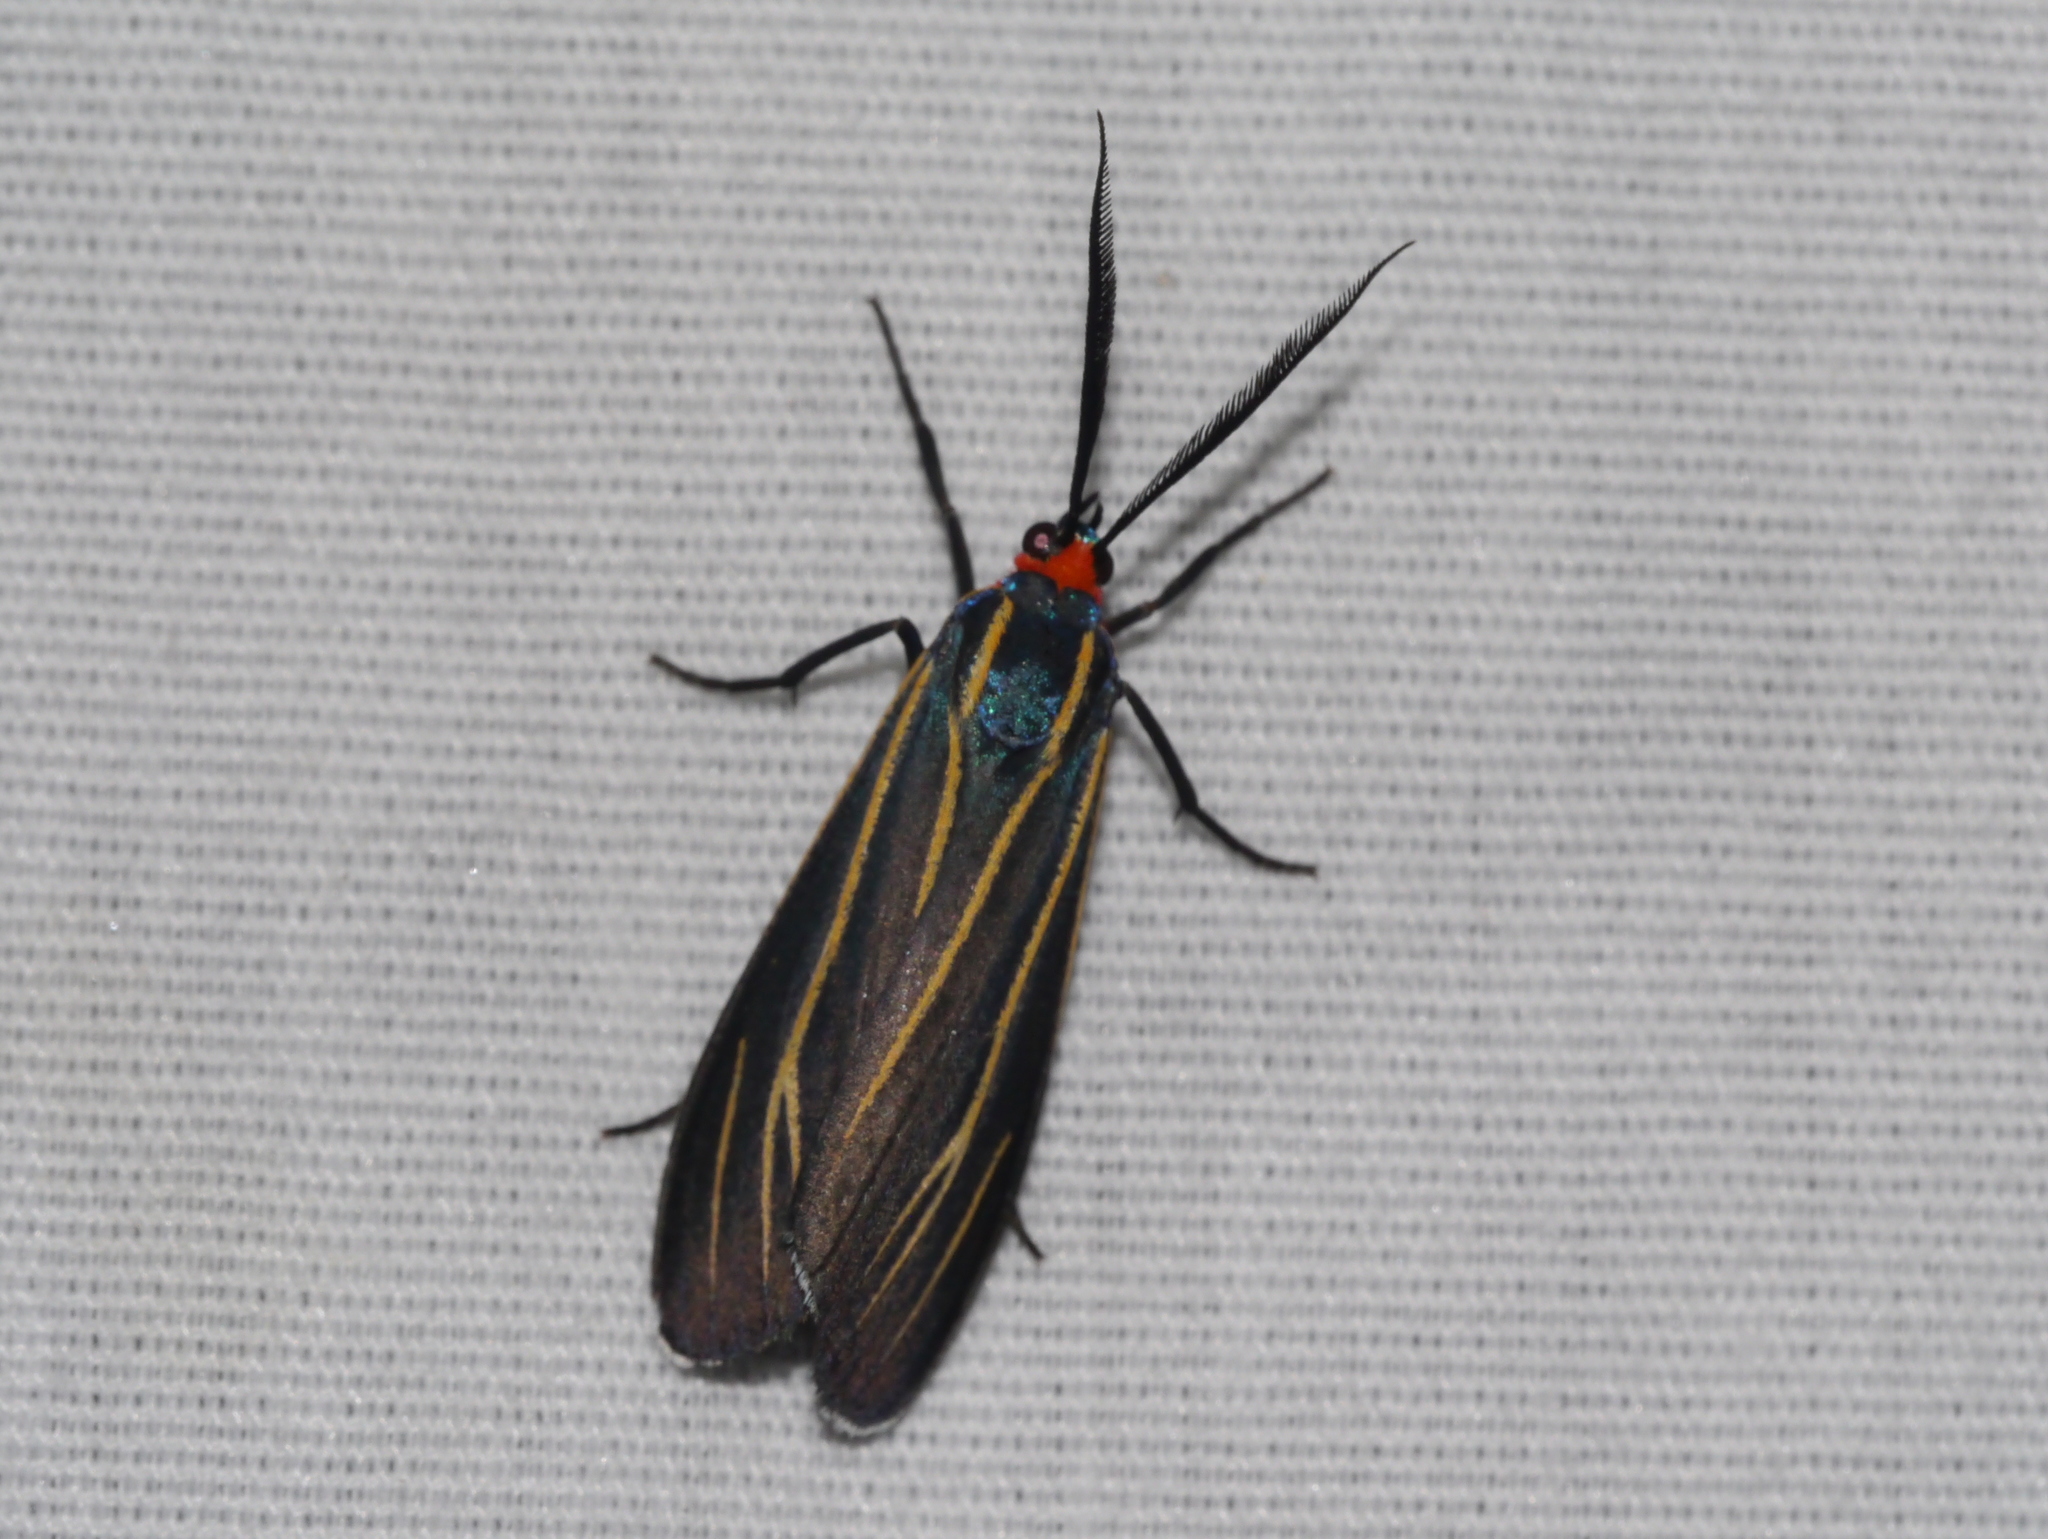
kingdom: Animalia
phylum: Arthropoda
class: Insecta
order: Lepidoptera
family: Erebidae
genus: Ctenucha
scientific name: Ctenucha venosa
